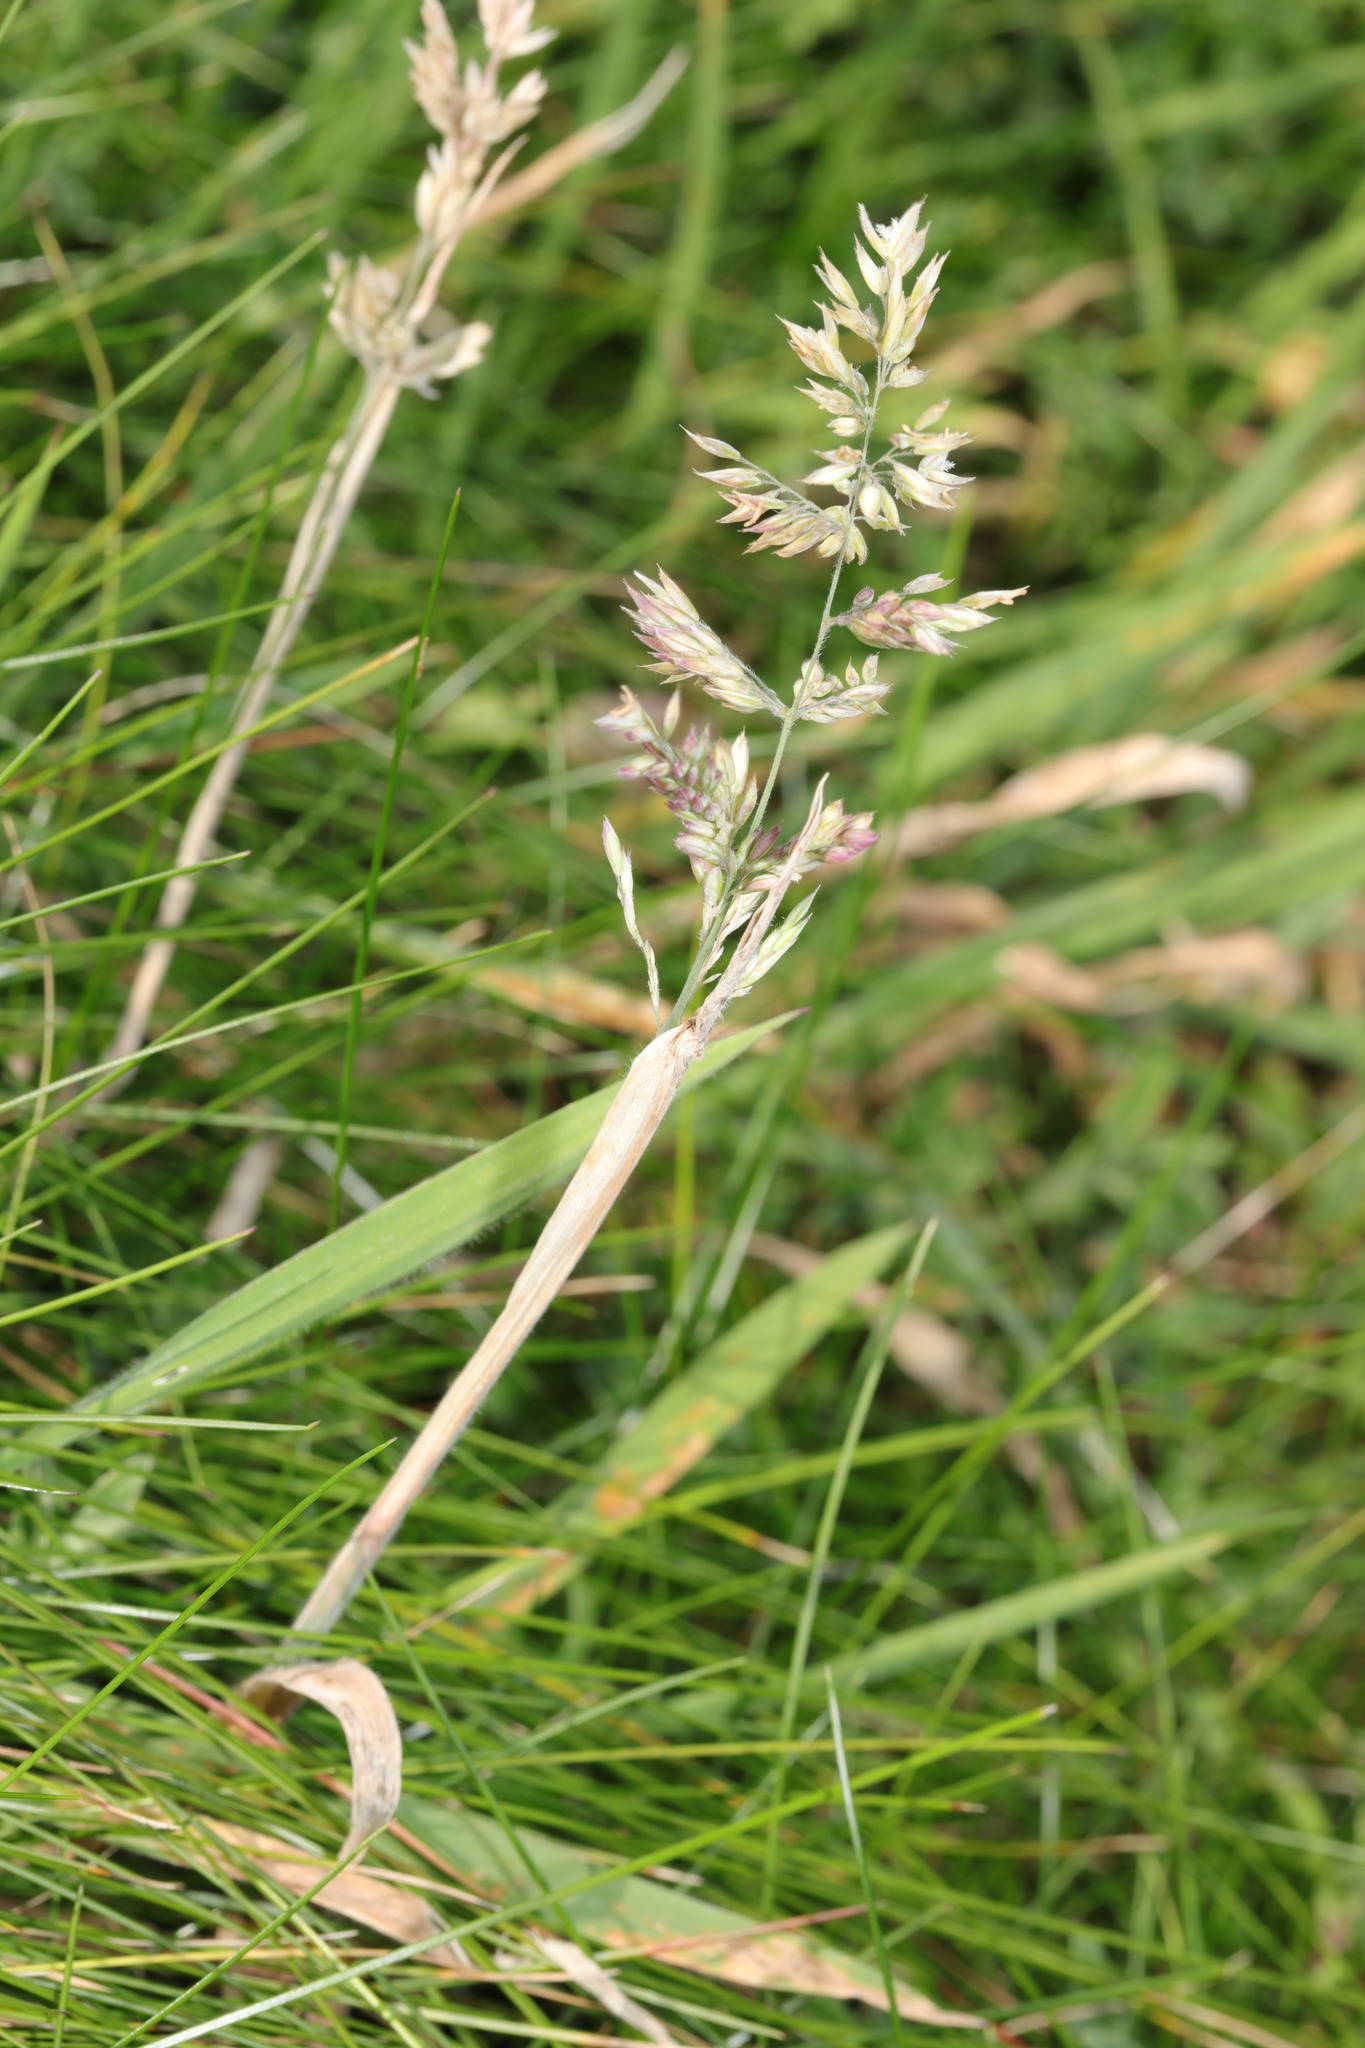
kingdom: Plantae
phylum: Tracheophyta
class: Liliopsida
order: Poales
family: Poaceae
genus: Holcus
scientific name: Holcus lanatus
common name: Yorkshire-fog
